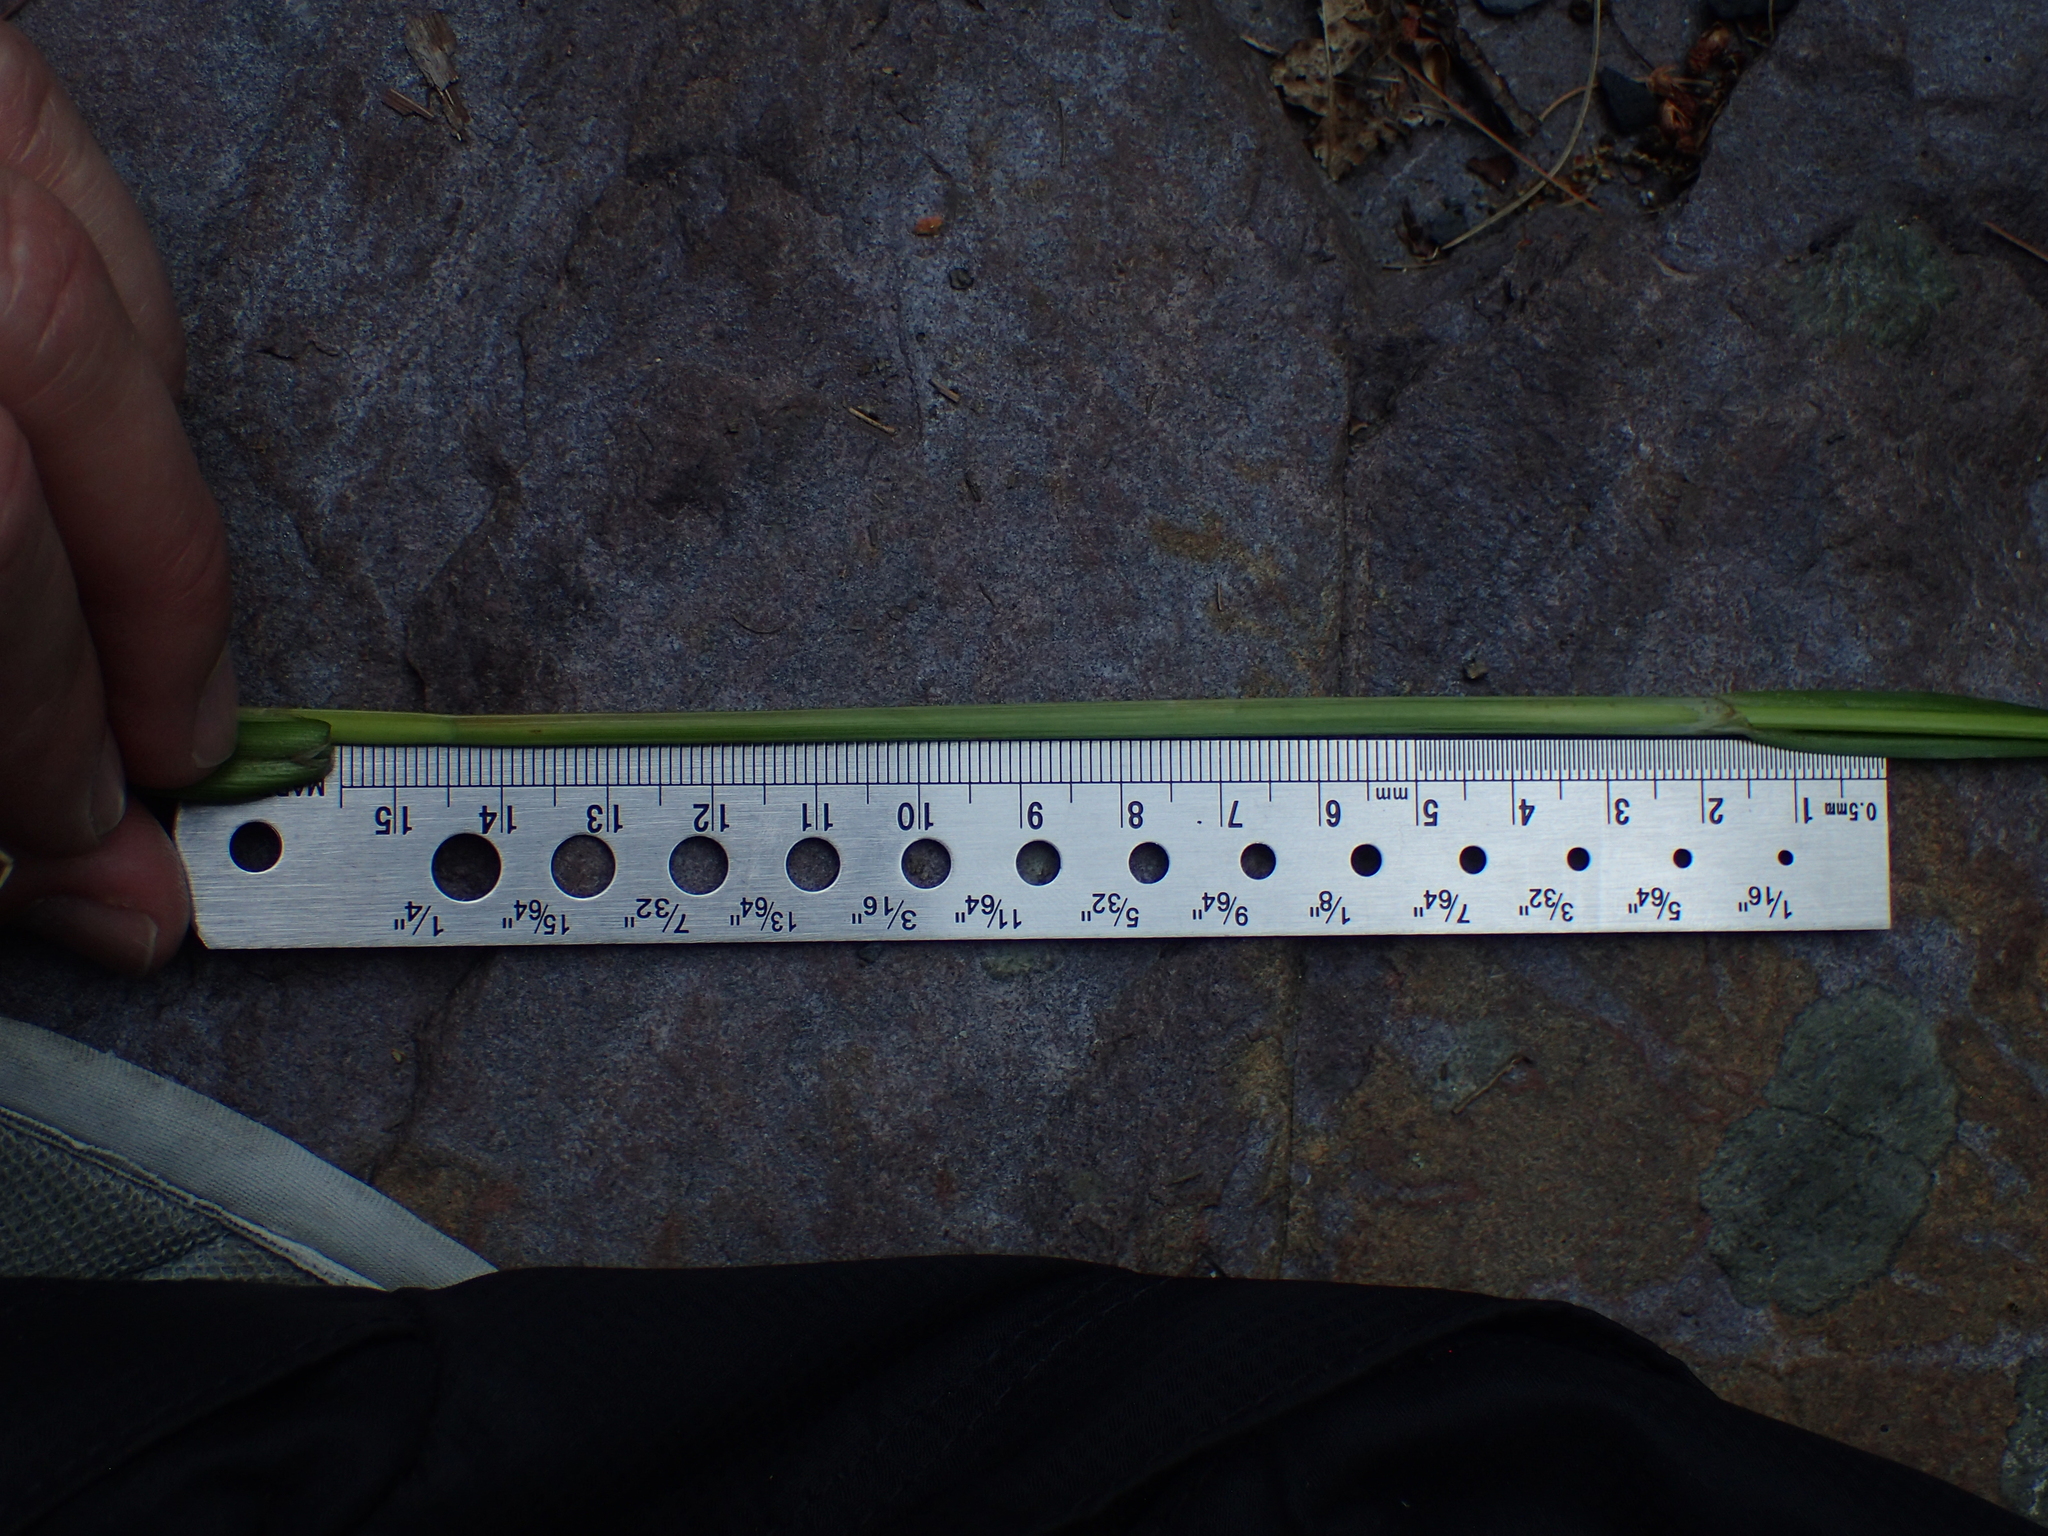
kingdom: Plantae
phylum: Tracheophyta
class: Liliopsida
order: Poales
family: Cyperaceae
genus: Carex
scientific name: Carex lurida
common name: Sallow sedge
